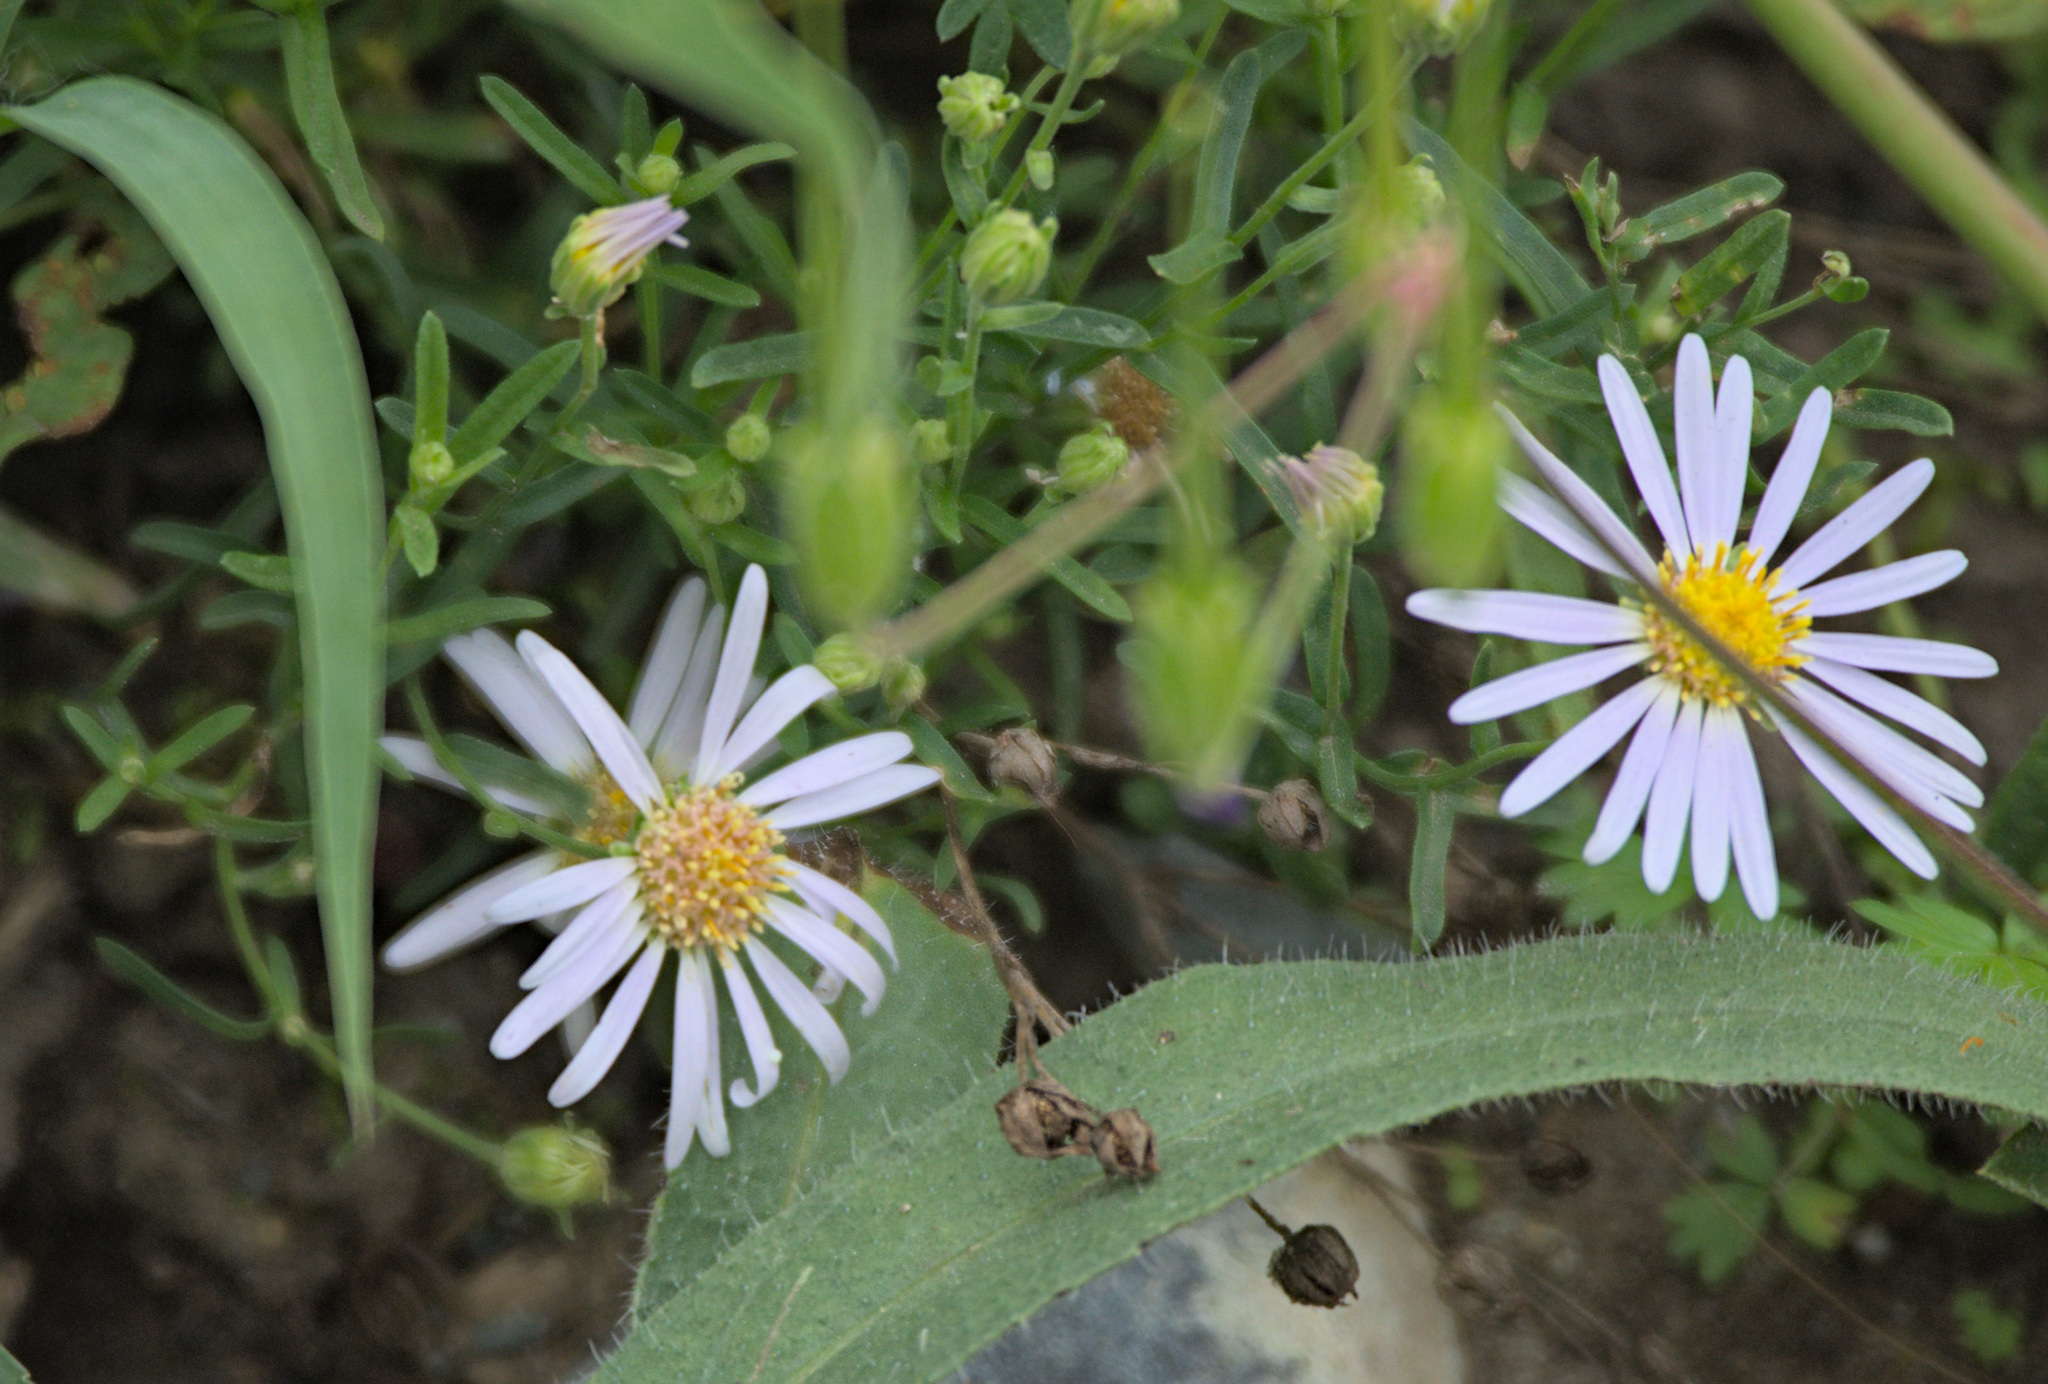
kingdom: Plantae
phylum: Tracheophyta
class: Magnoliopsida
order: Asterales
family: Asteraceae
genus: Heteropappus
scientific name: Heteropappus altaicus
